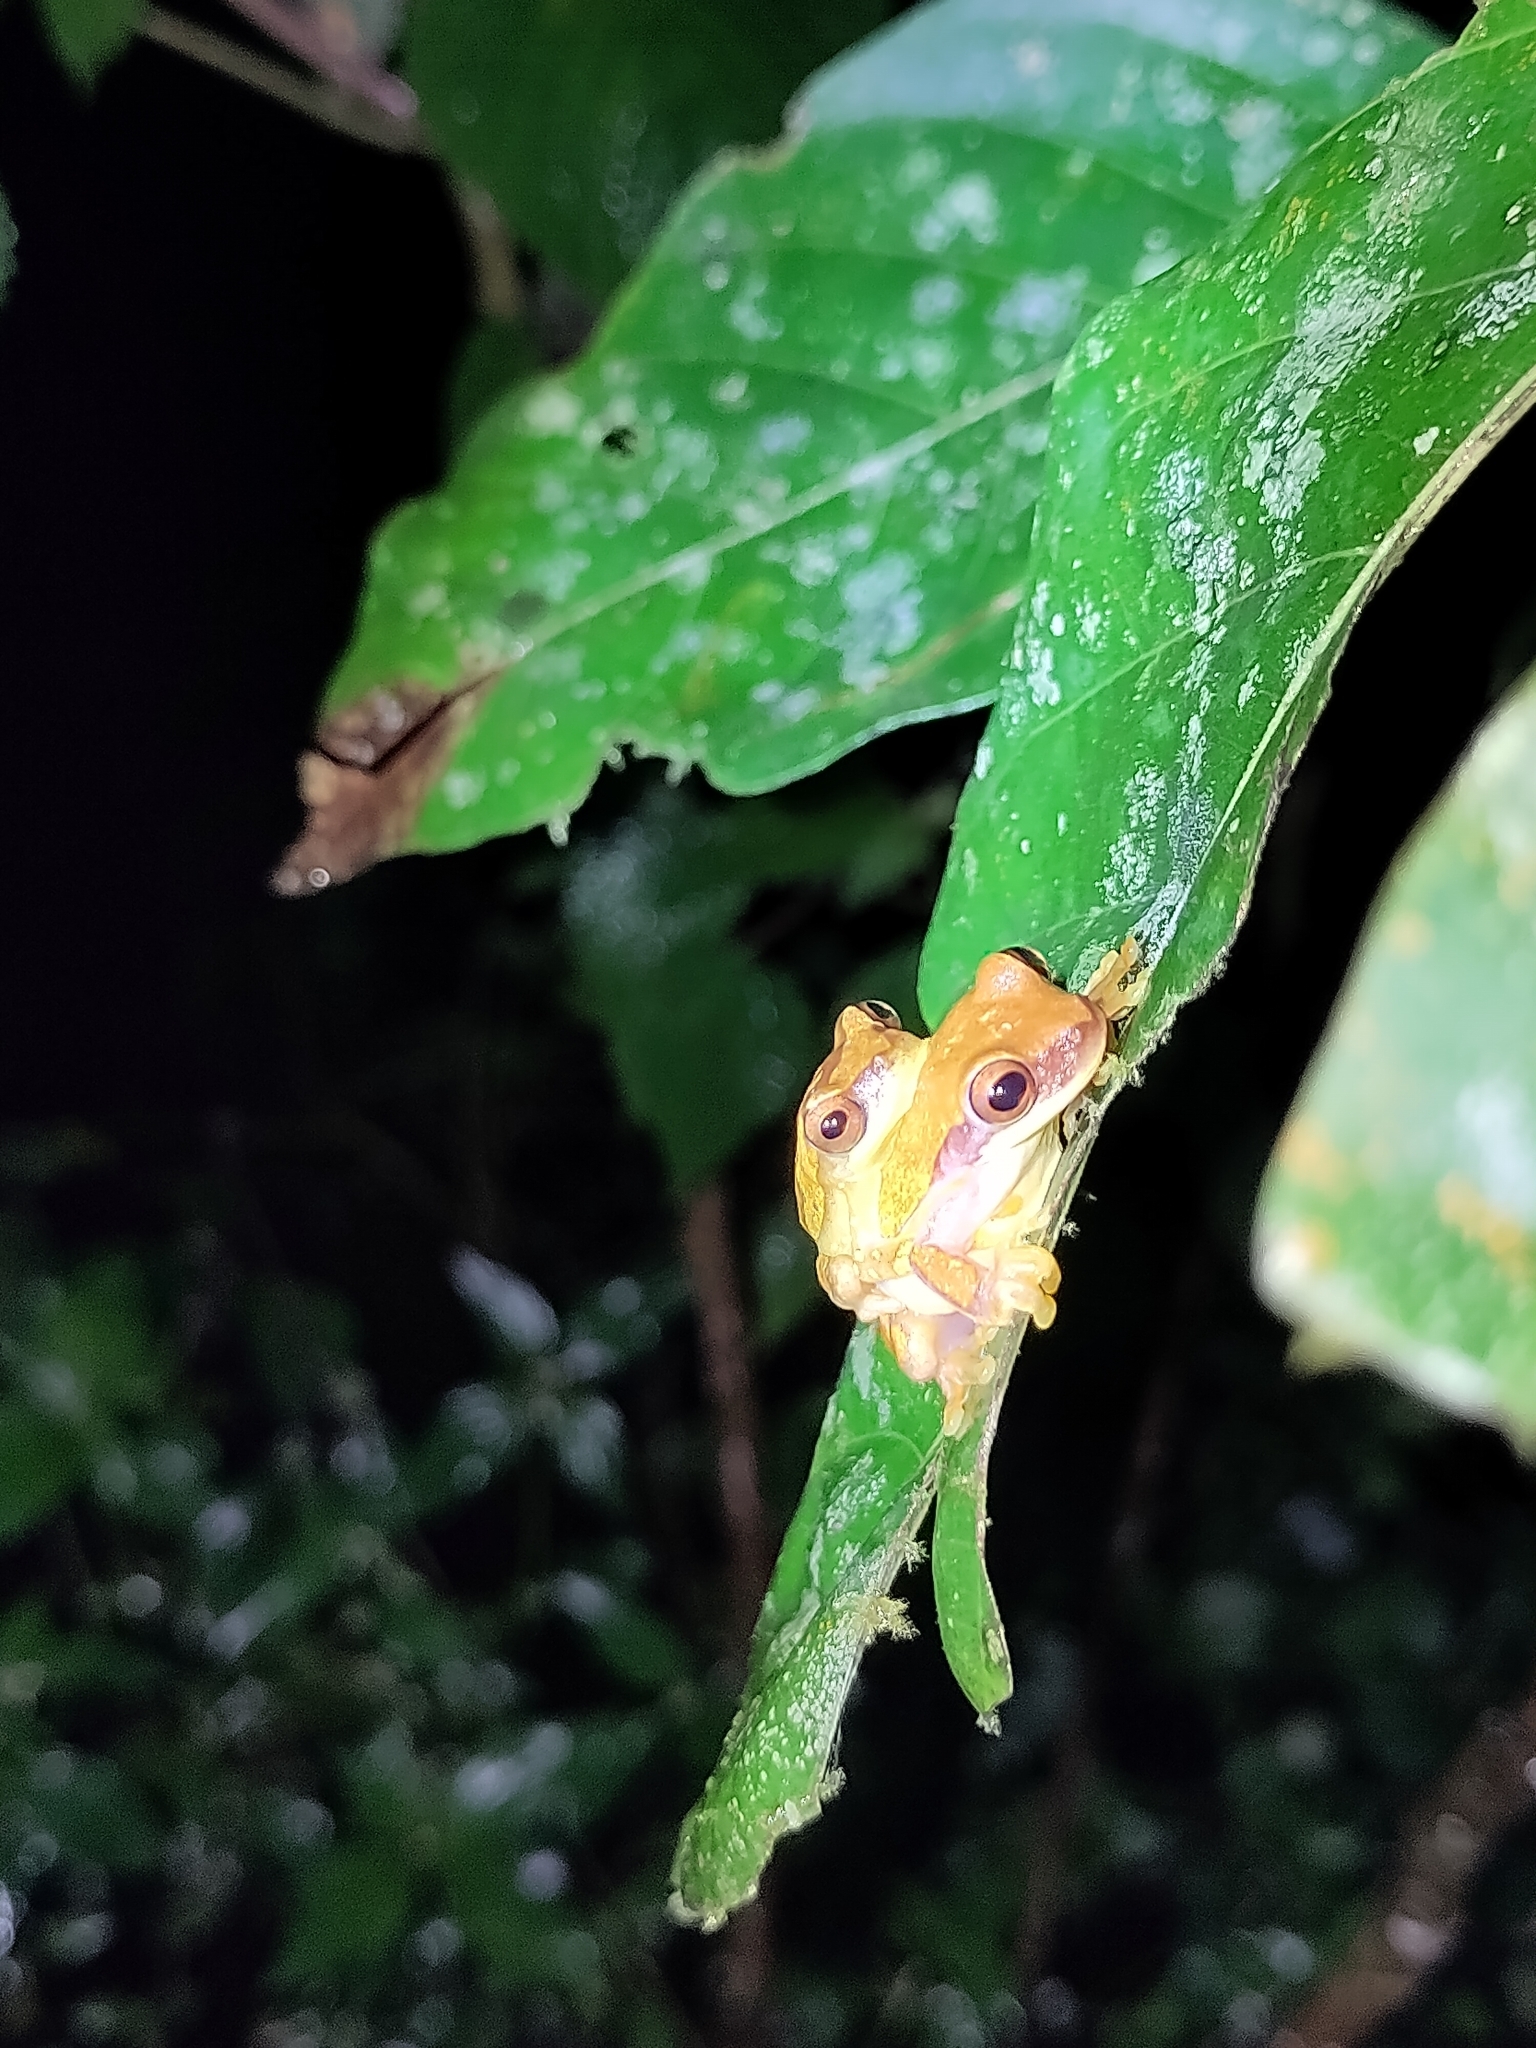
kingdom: Animalia
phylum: Chordata
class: Amphibia
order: Anura
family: Hylidae
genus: Dendropsophus
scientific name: Dendropsophus ebraccatus
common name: Hourglass treefrog
